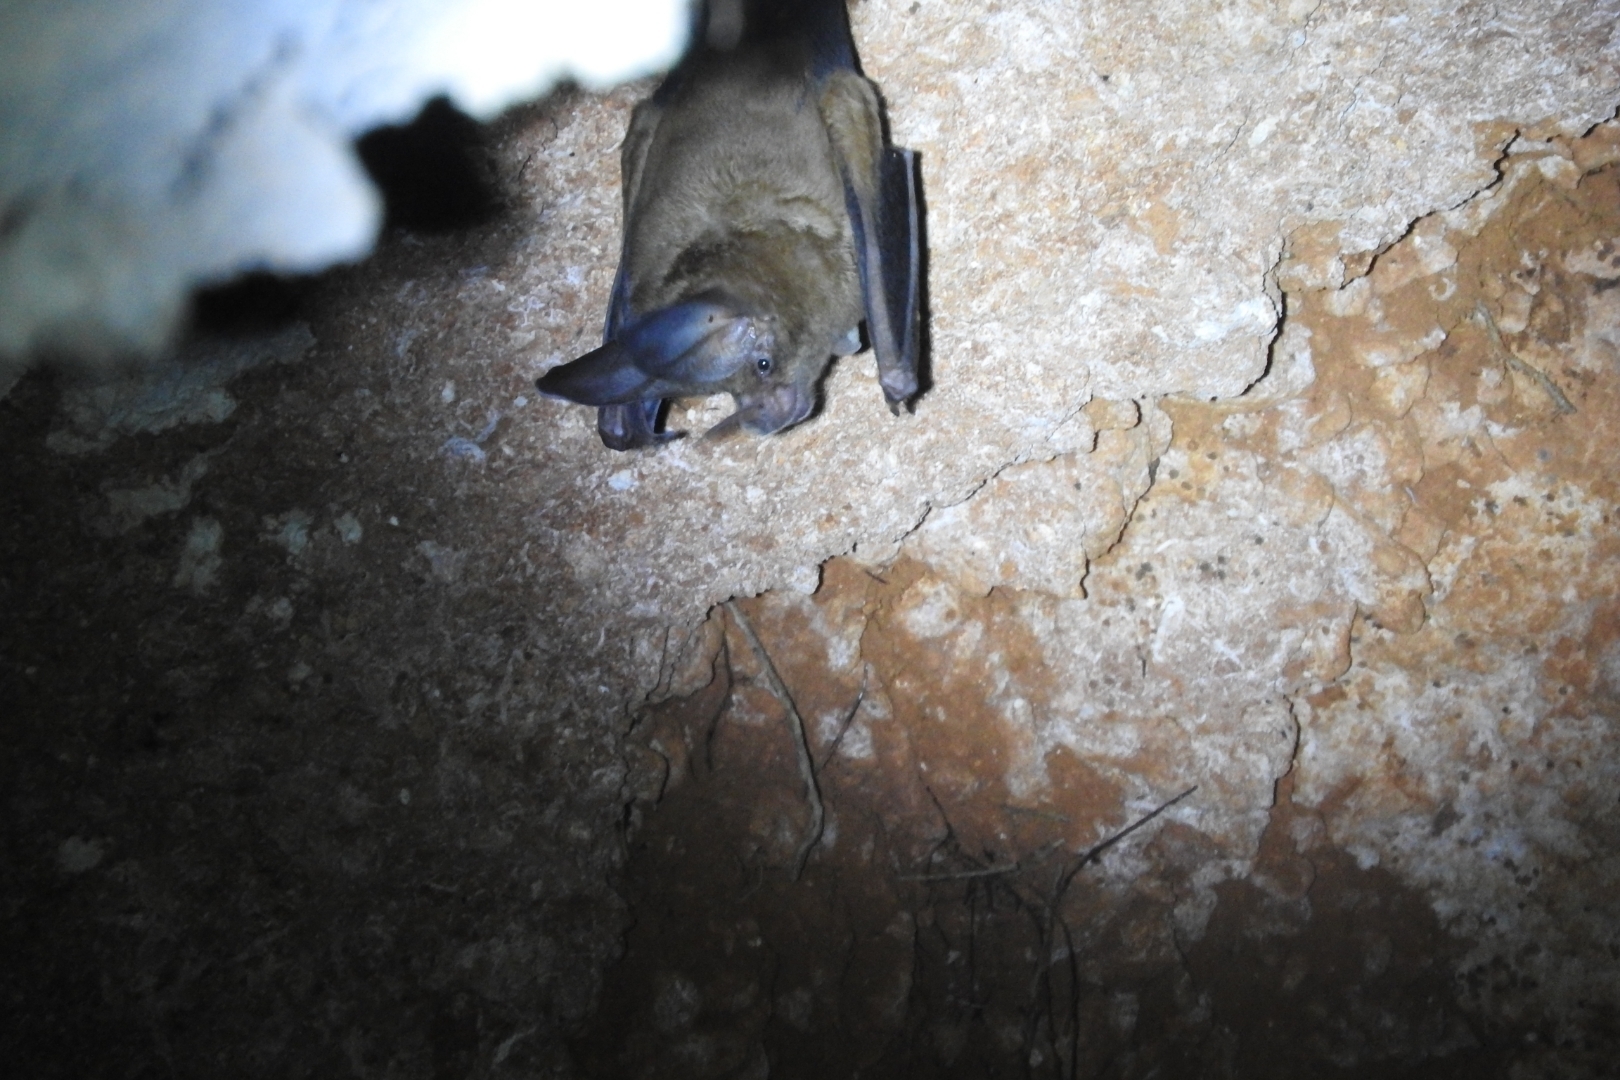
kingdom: Animalia
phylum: Chordata
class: Mammalia
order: Chiroptera
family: Phyllostomidae
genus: Mimon
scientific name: Mimon cozumelae
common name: Cozumelan golden bat
